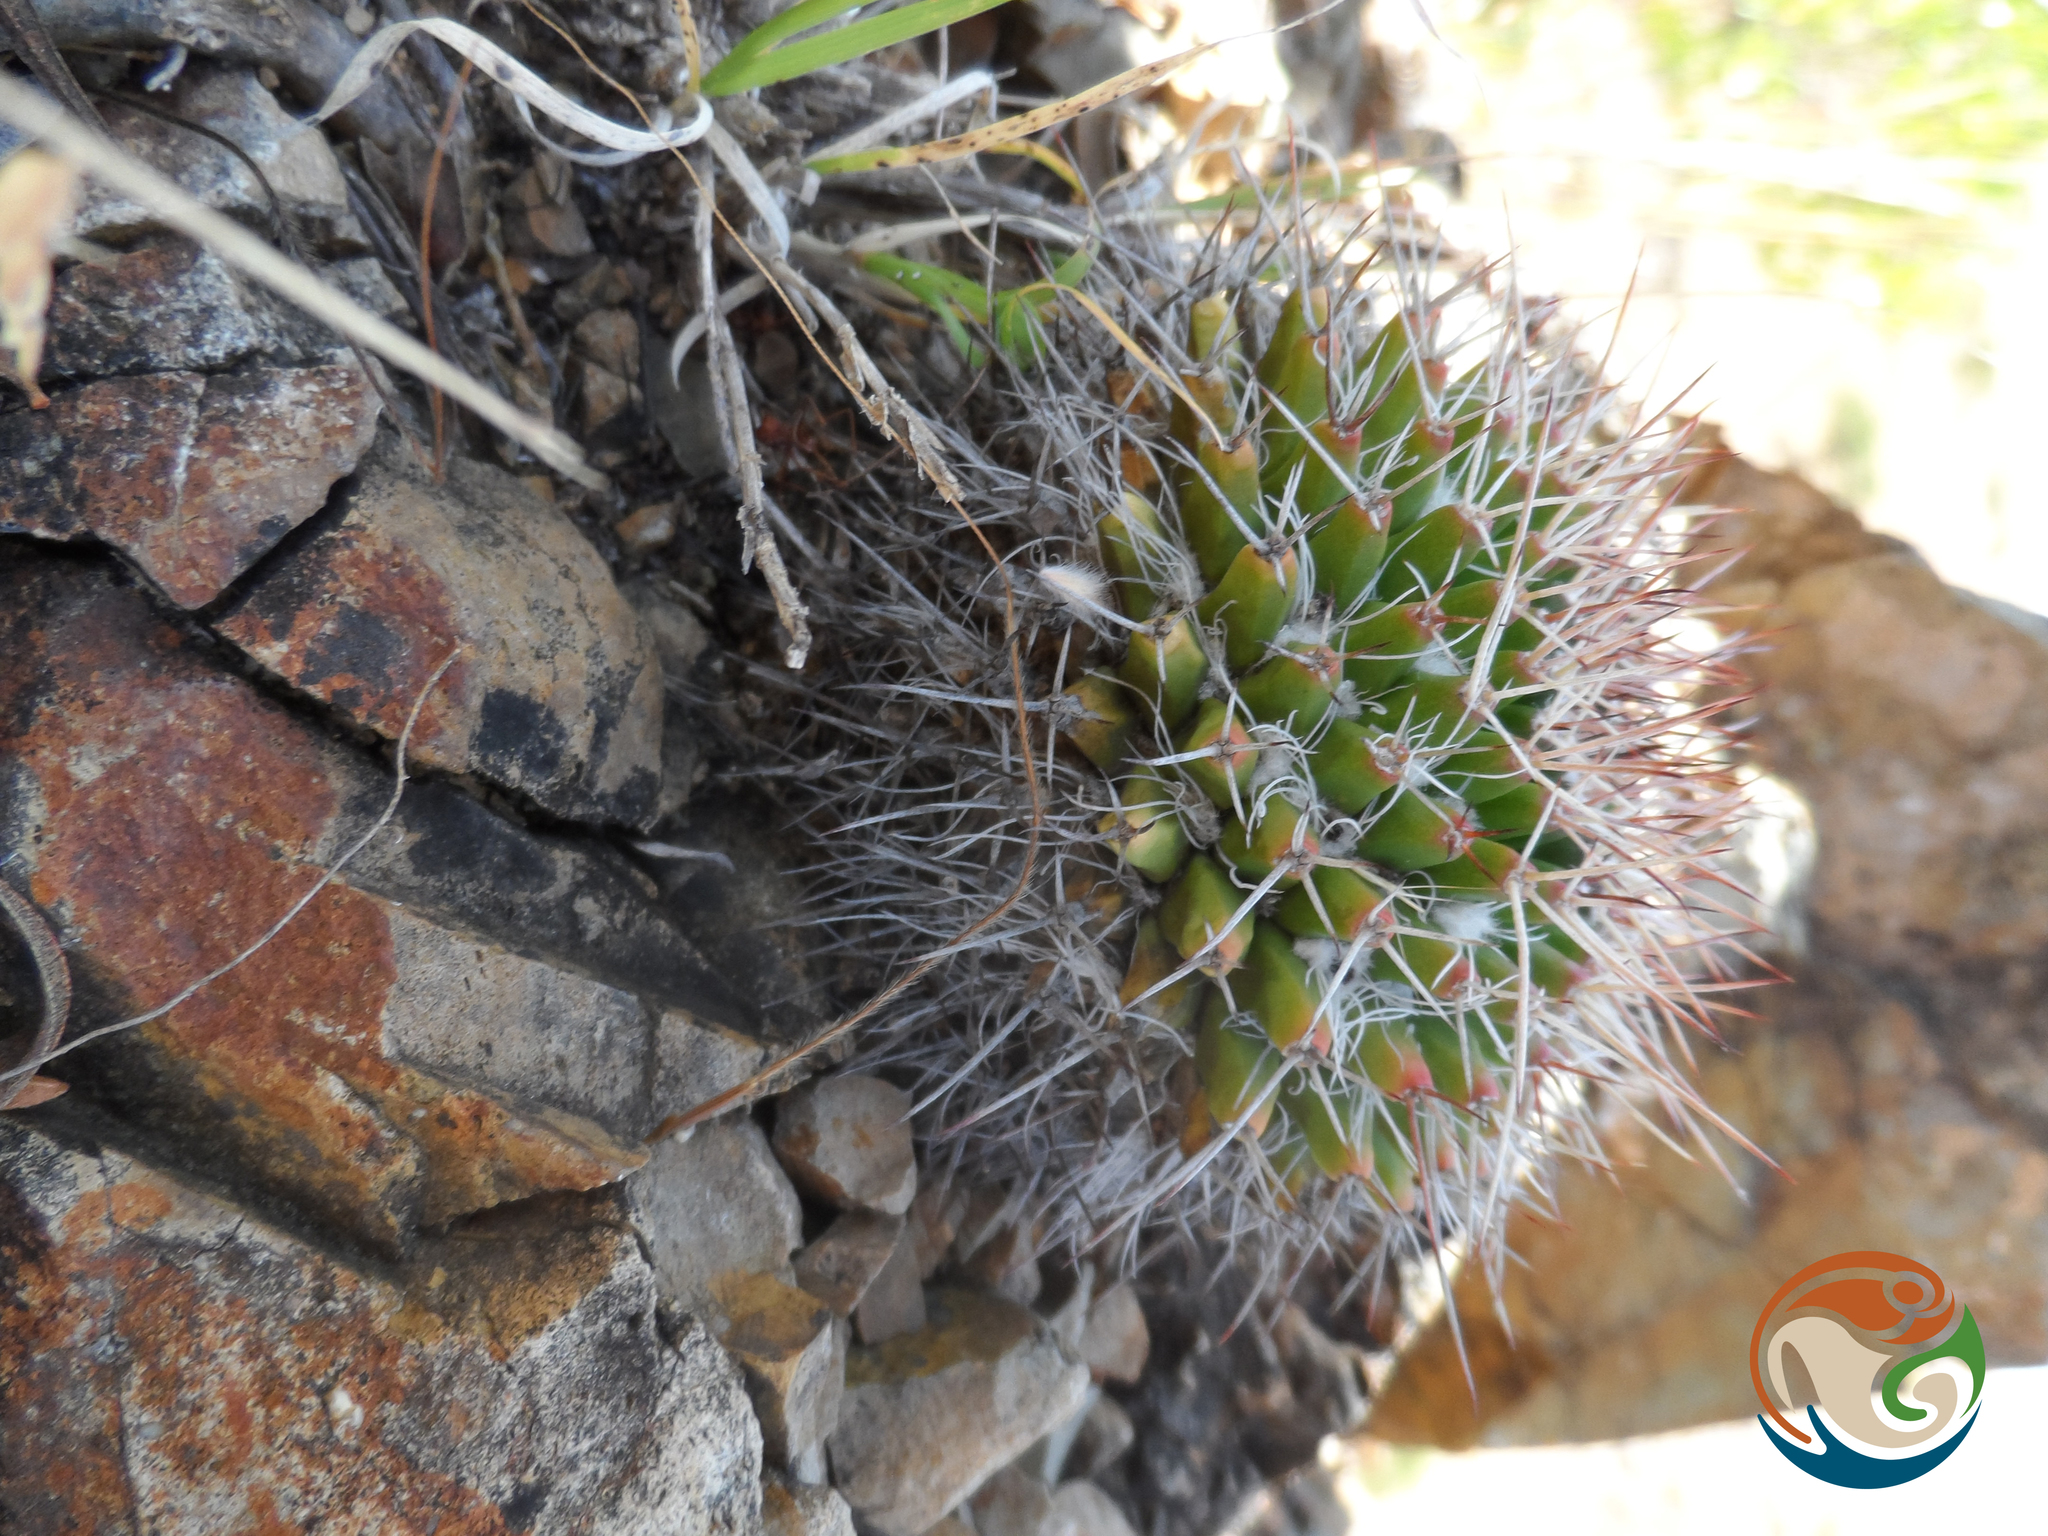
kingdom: Plantae
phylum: Tracheophyta
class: Magnoliopsida
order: Caryophyllales
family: Cactaceae
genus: Mammillaria
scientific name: Mammillaria polyedra
